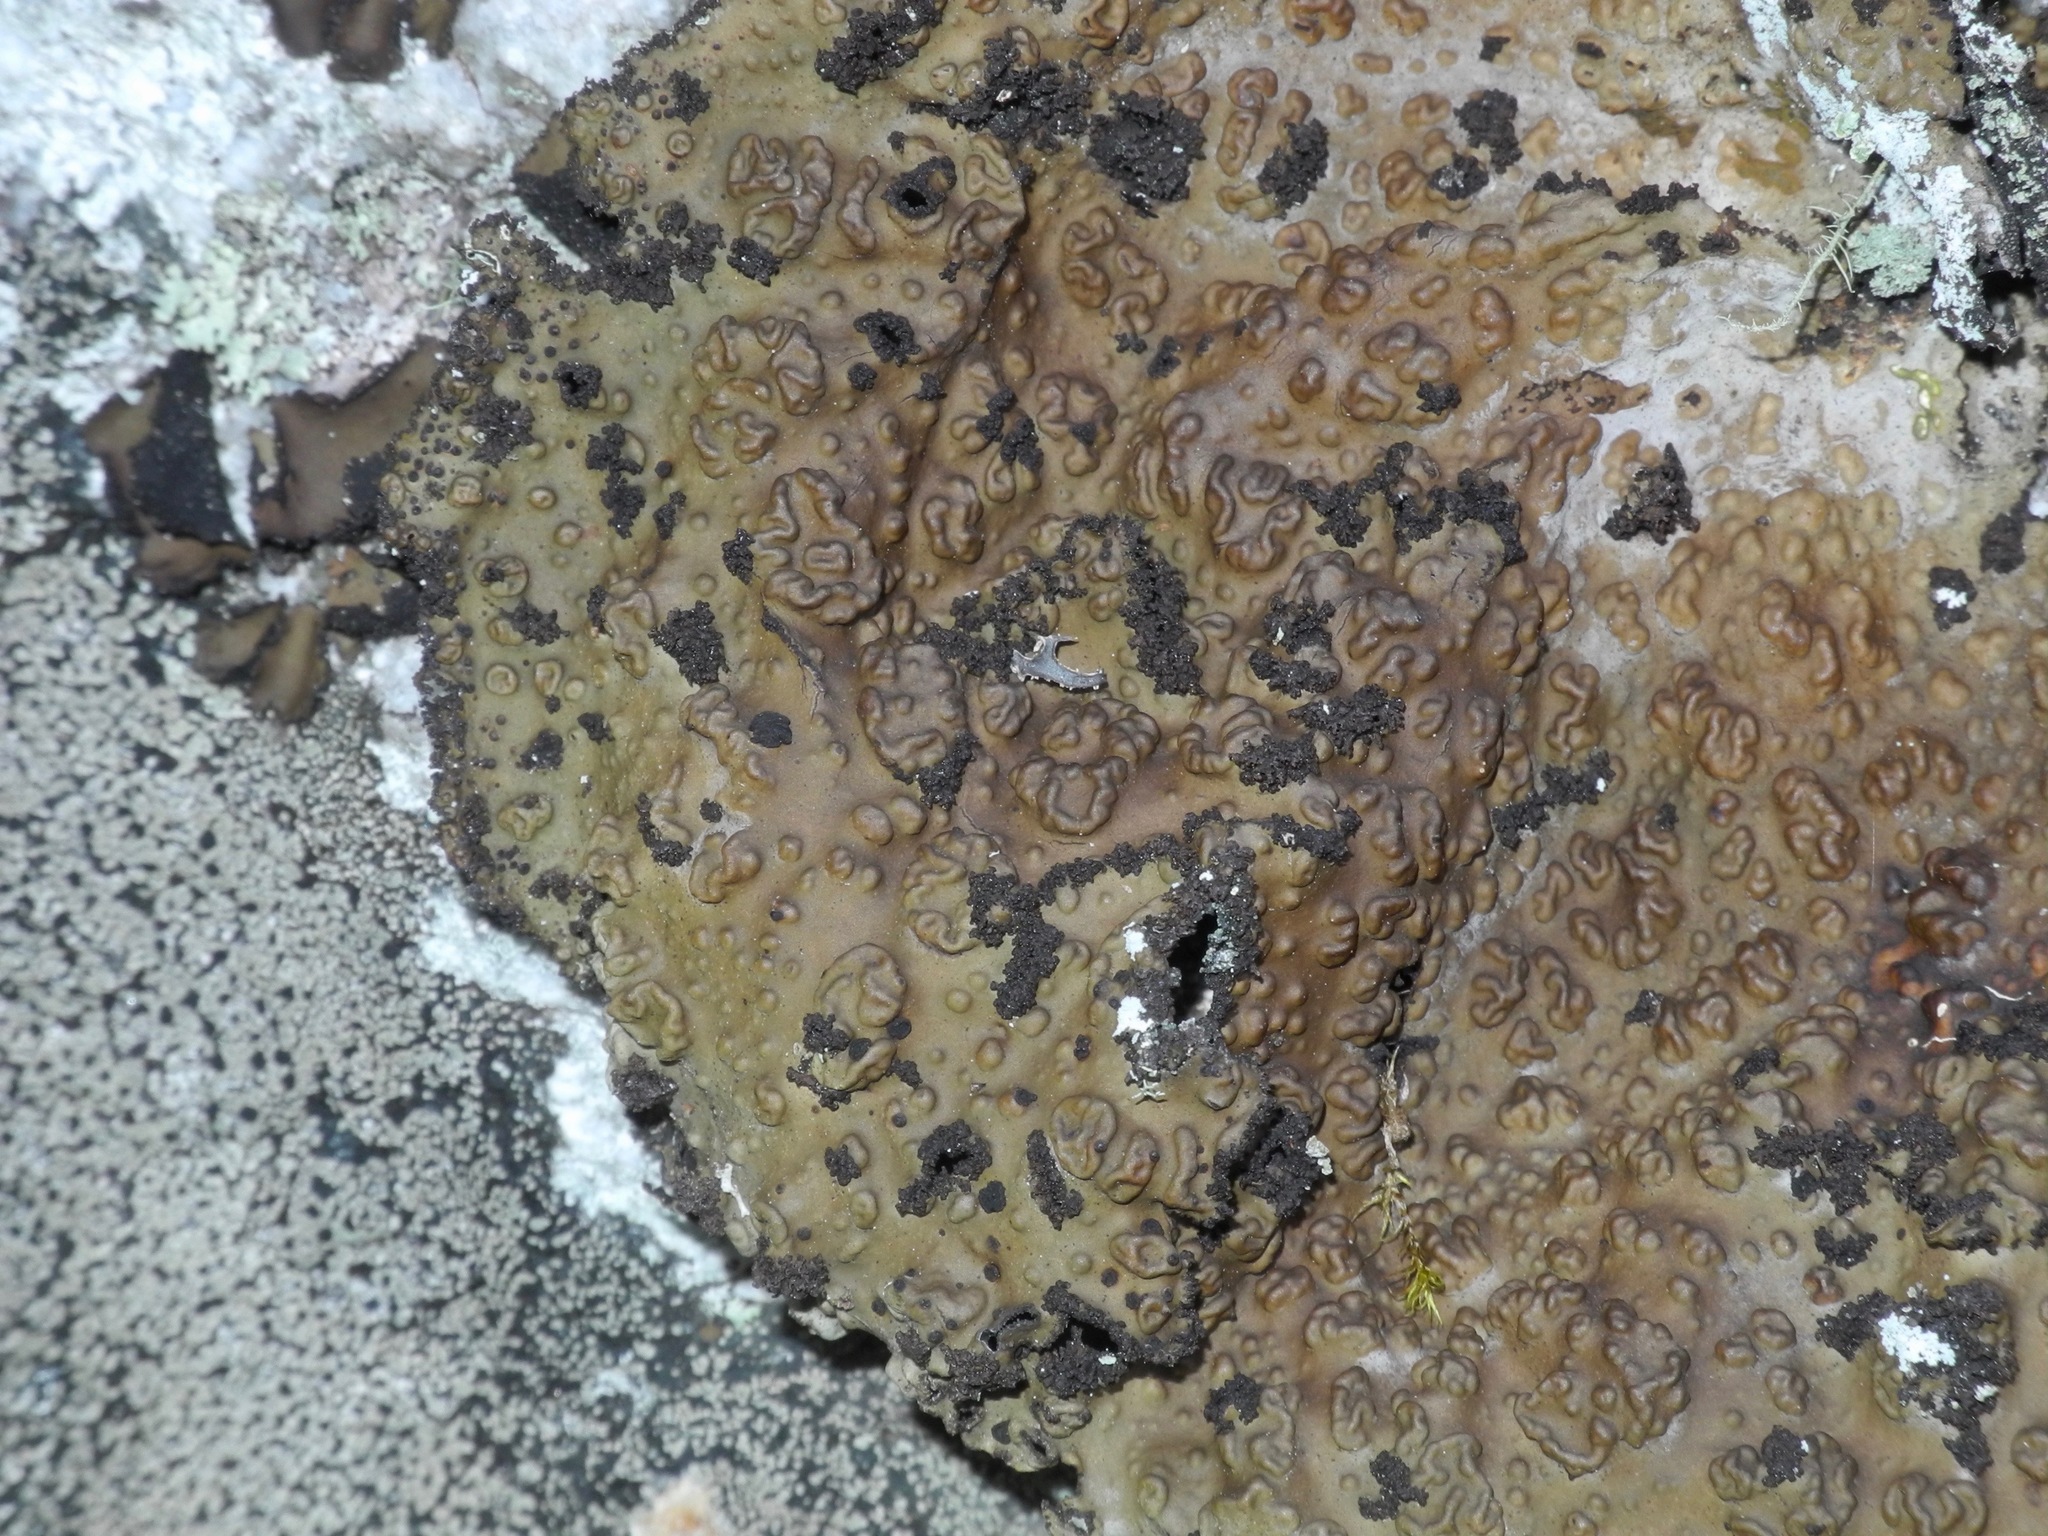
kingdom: Fungi
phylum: Ascomycota
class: Lecanoromycetes
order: Umbilicariales
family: Umbilicariaceae
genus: Lasallia
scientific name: Lasallia pensylvanica
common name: Blackened toadskin lichen
